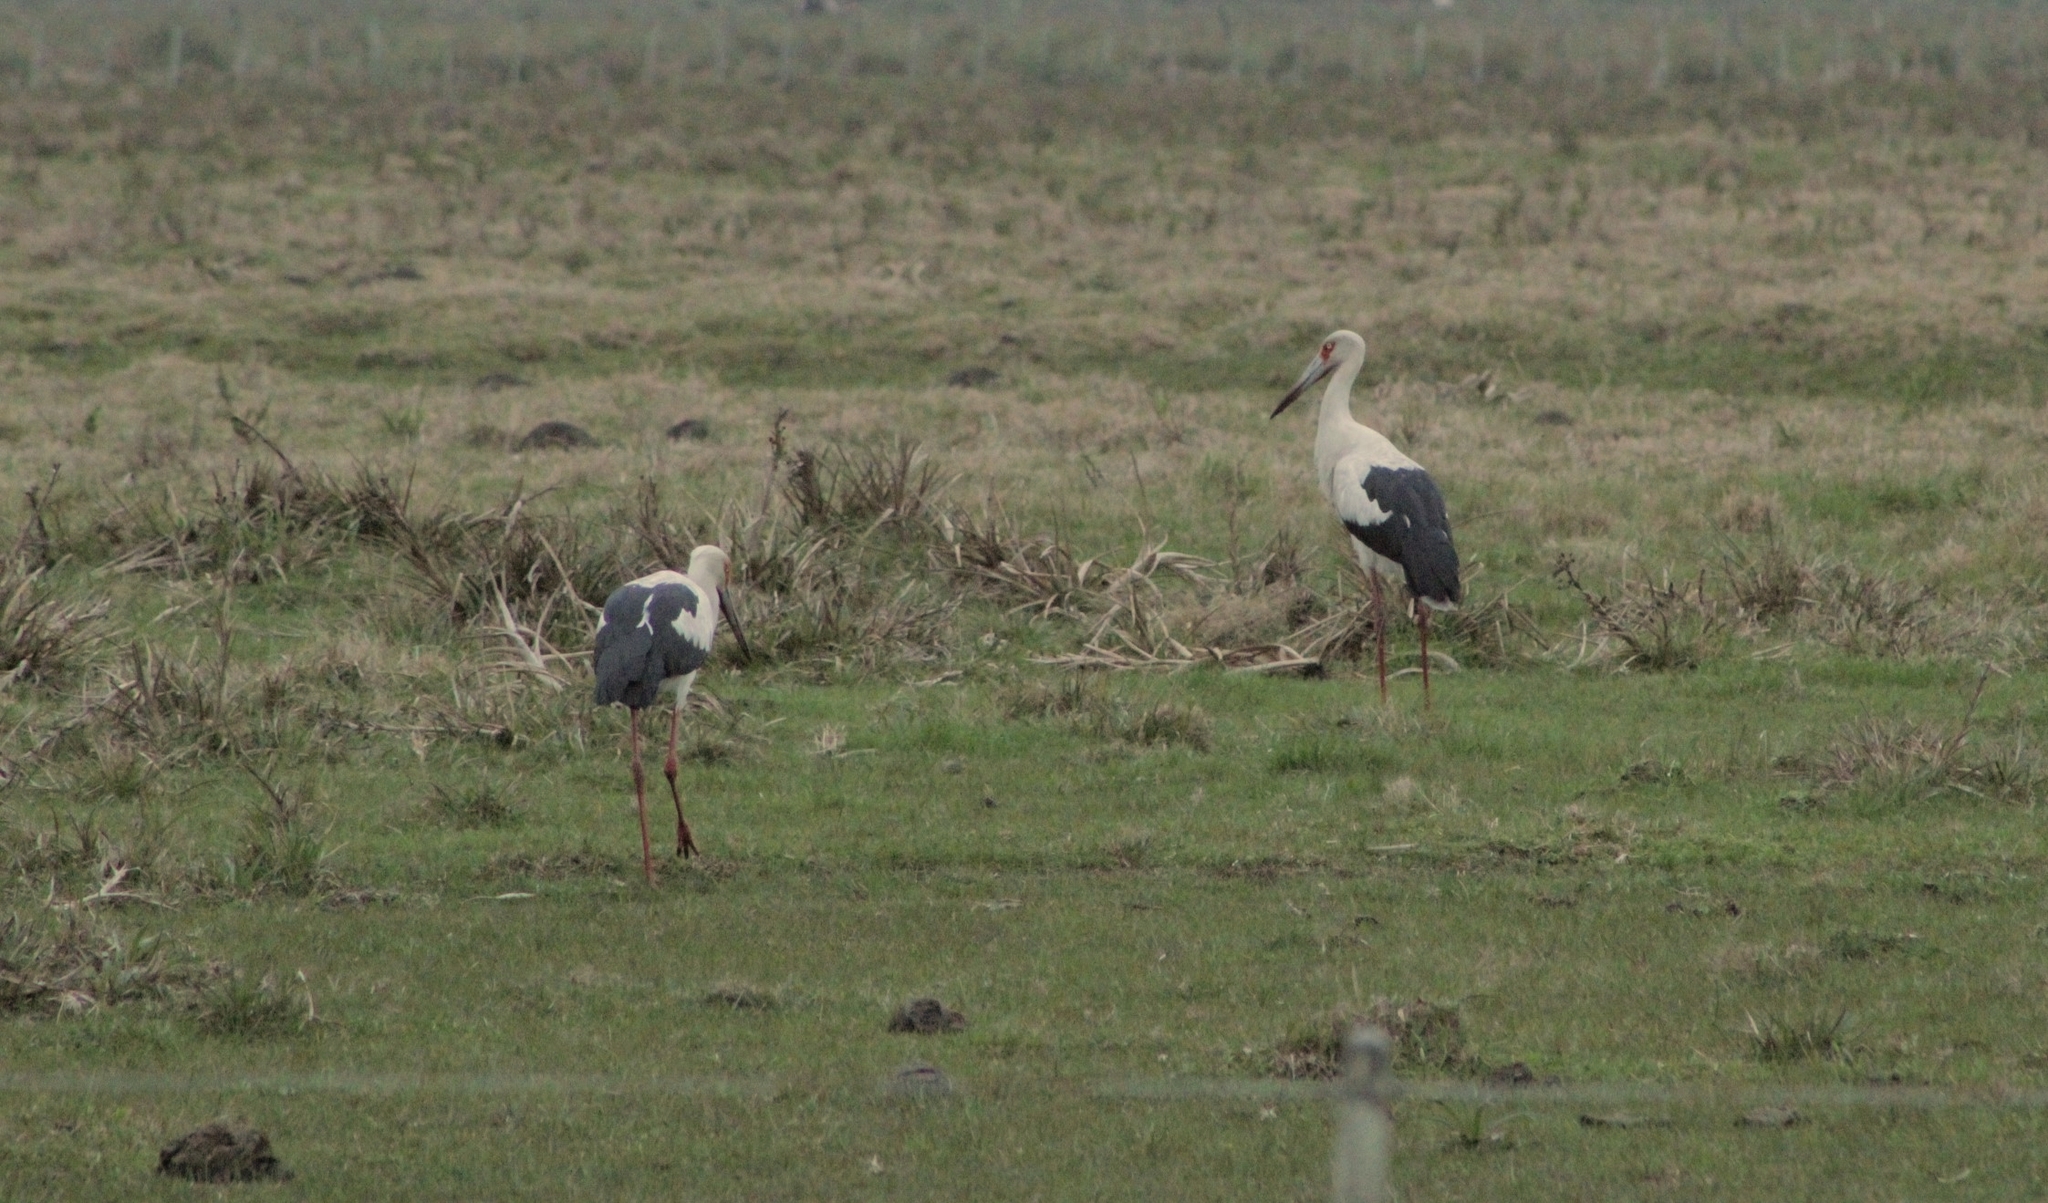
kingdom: Animalia
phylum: Chordata
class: Aves
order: Ciconiiformes
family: Ciconiidae
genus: Ciconia
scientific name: Ciconia maguari
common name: Maguari stork
